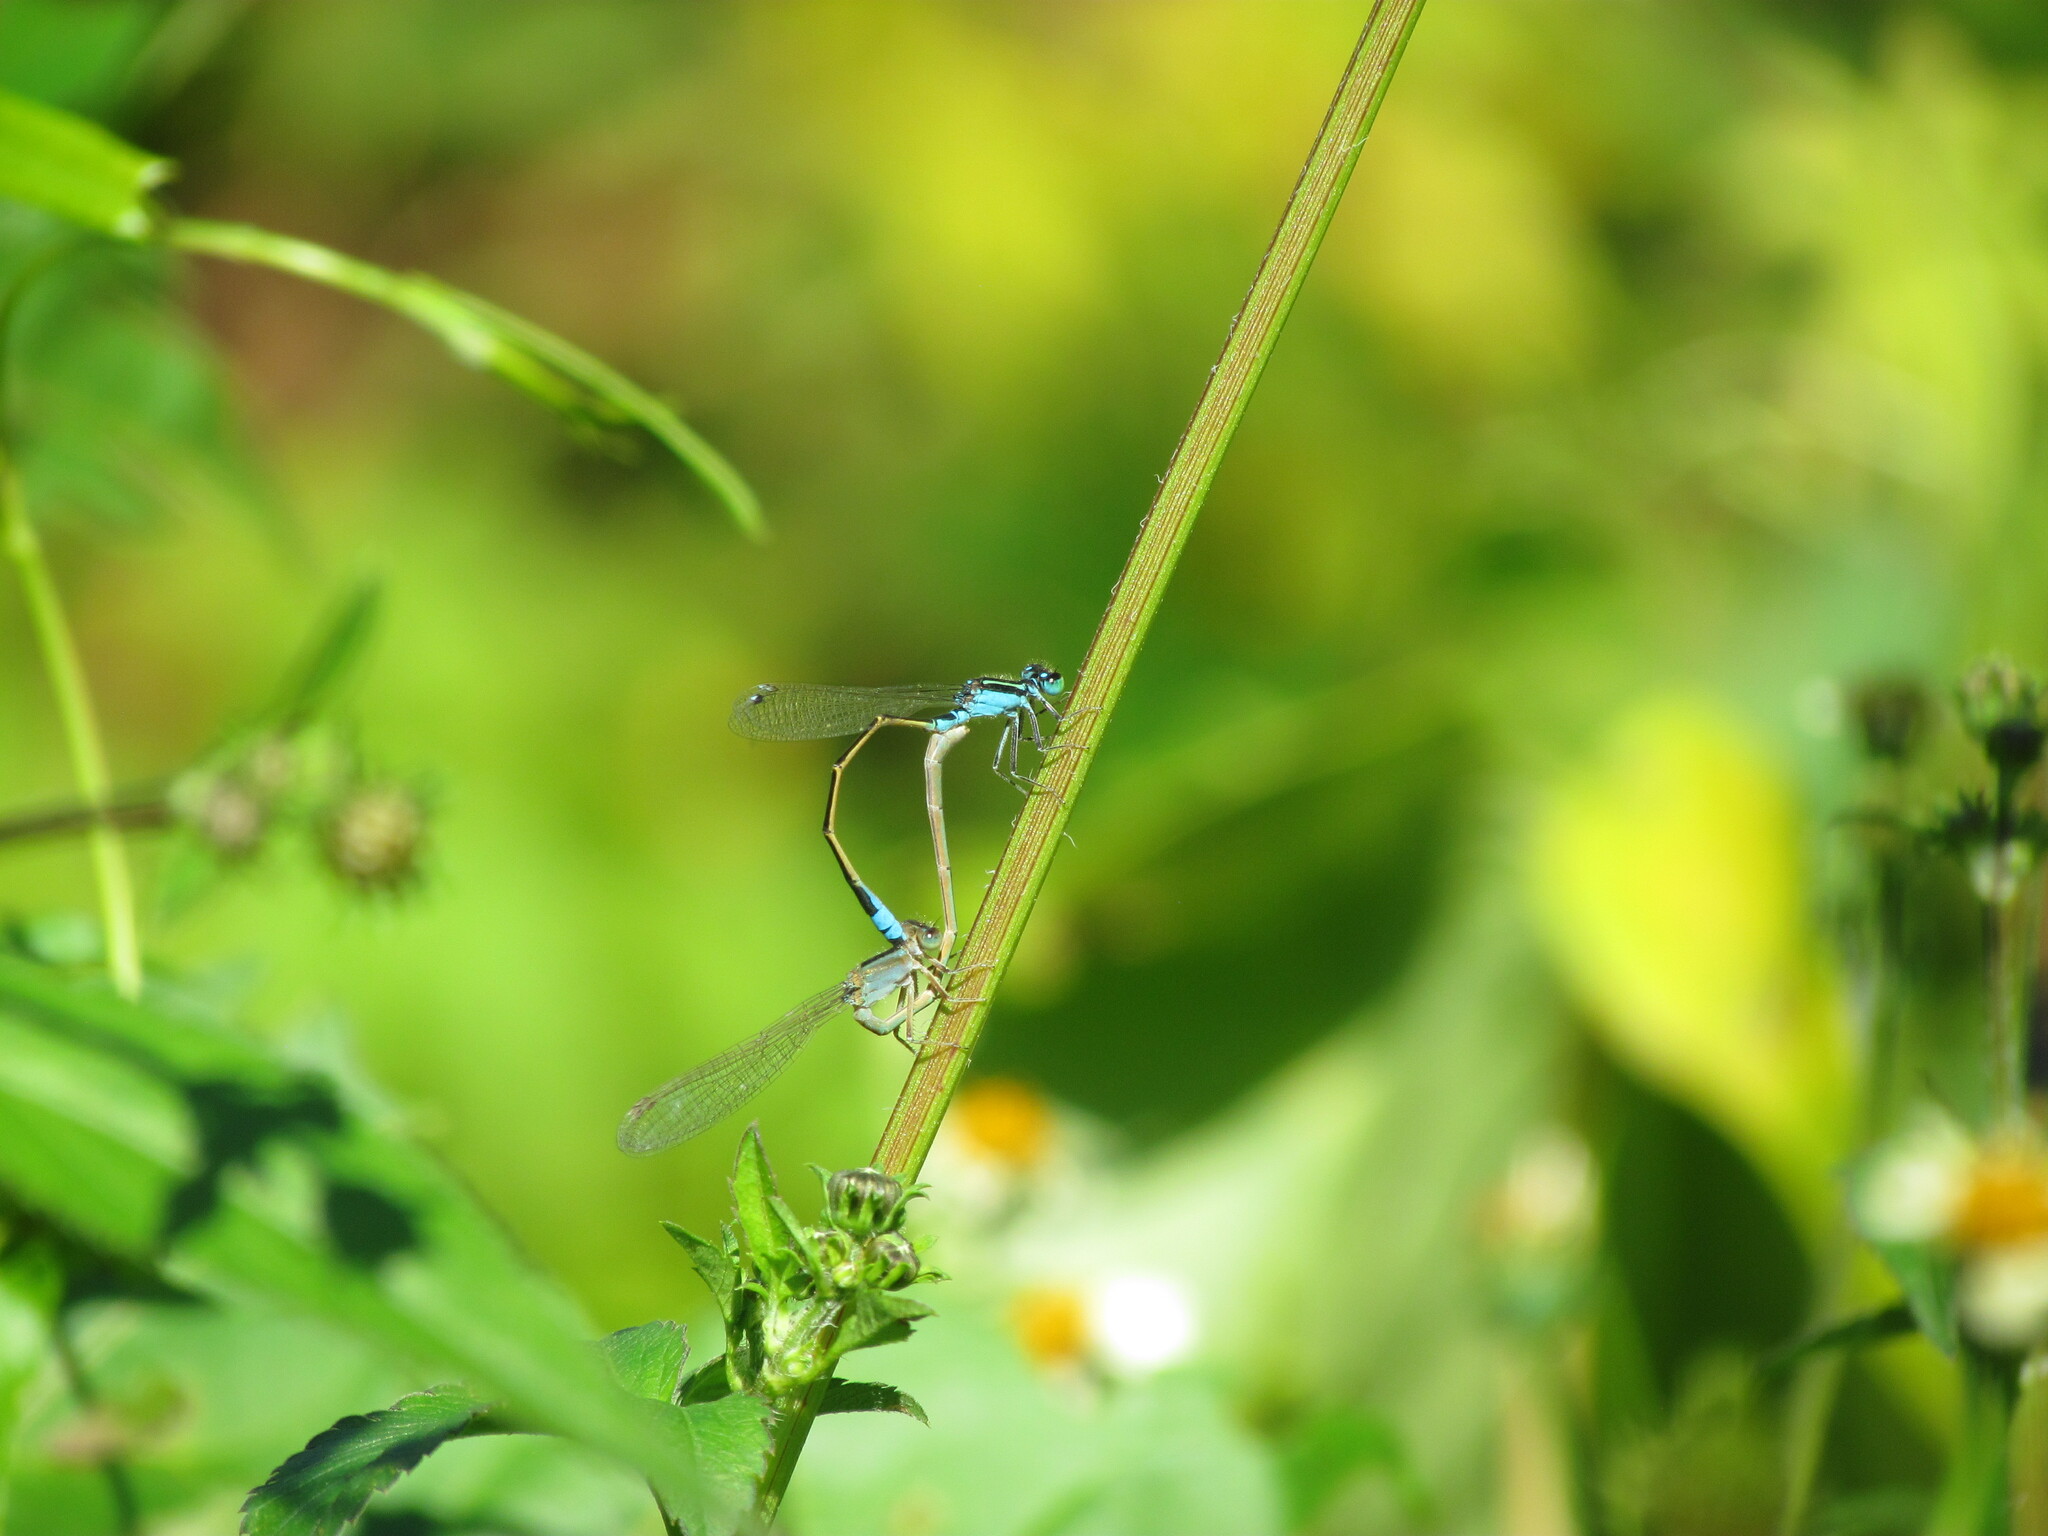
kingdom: Animalia
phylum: Arthropoda
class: Insecta
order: Odonata
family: Coenagrionidae
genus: Ischnura
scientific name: Ischnura fluviatilis
